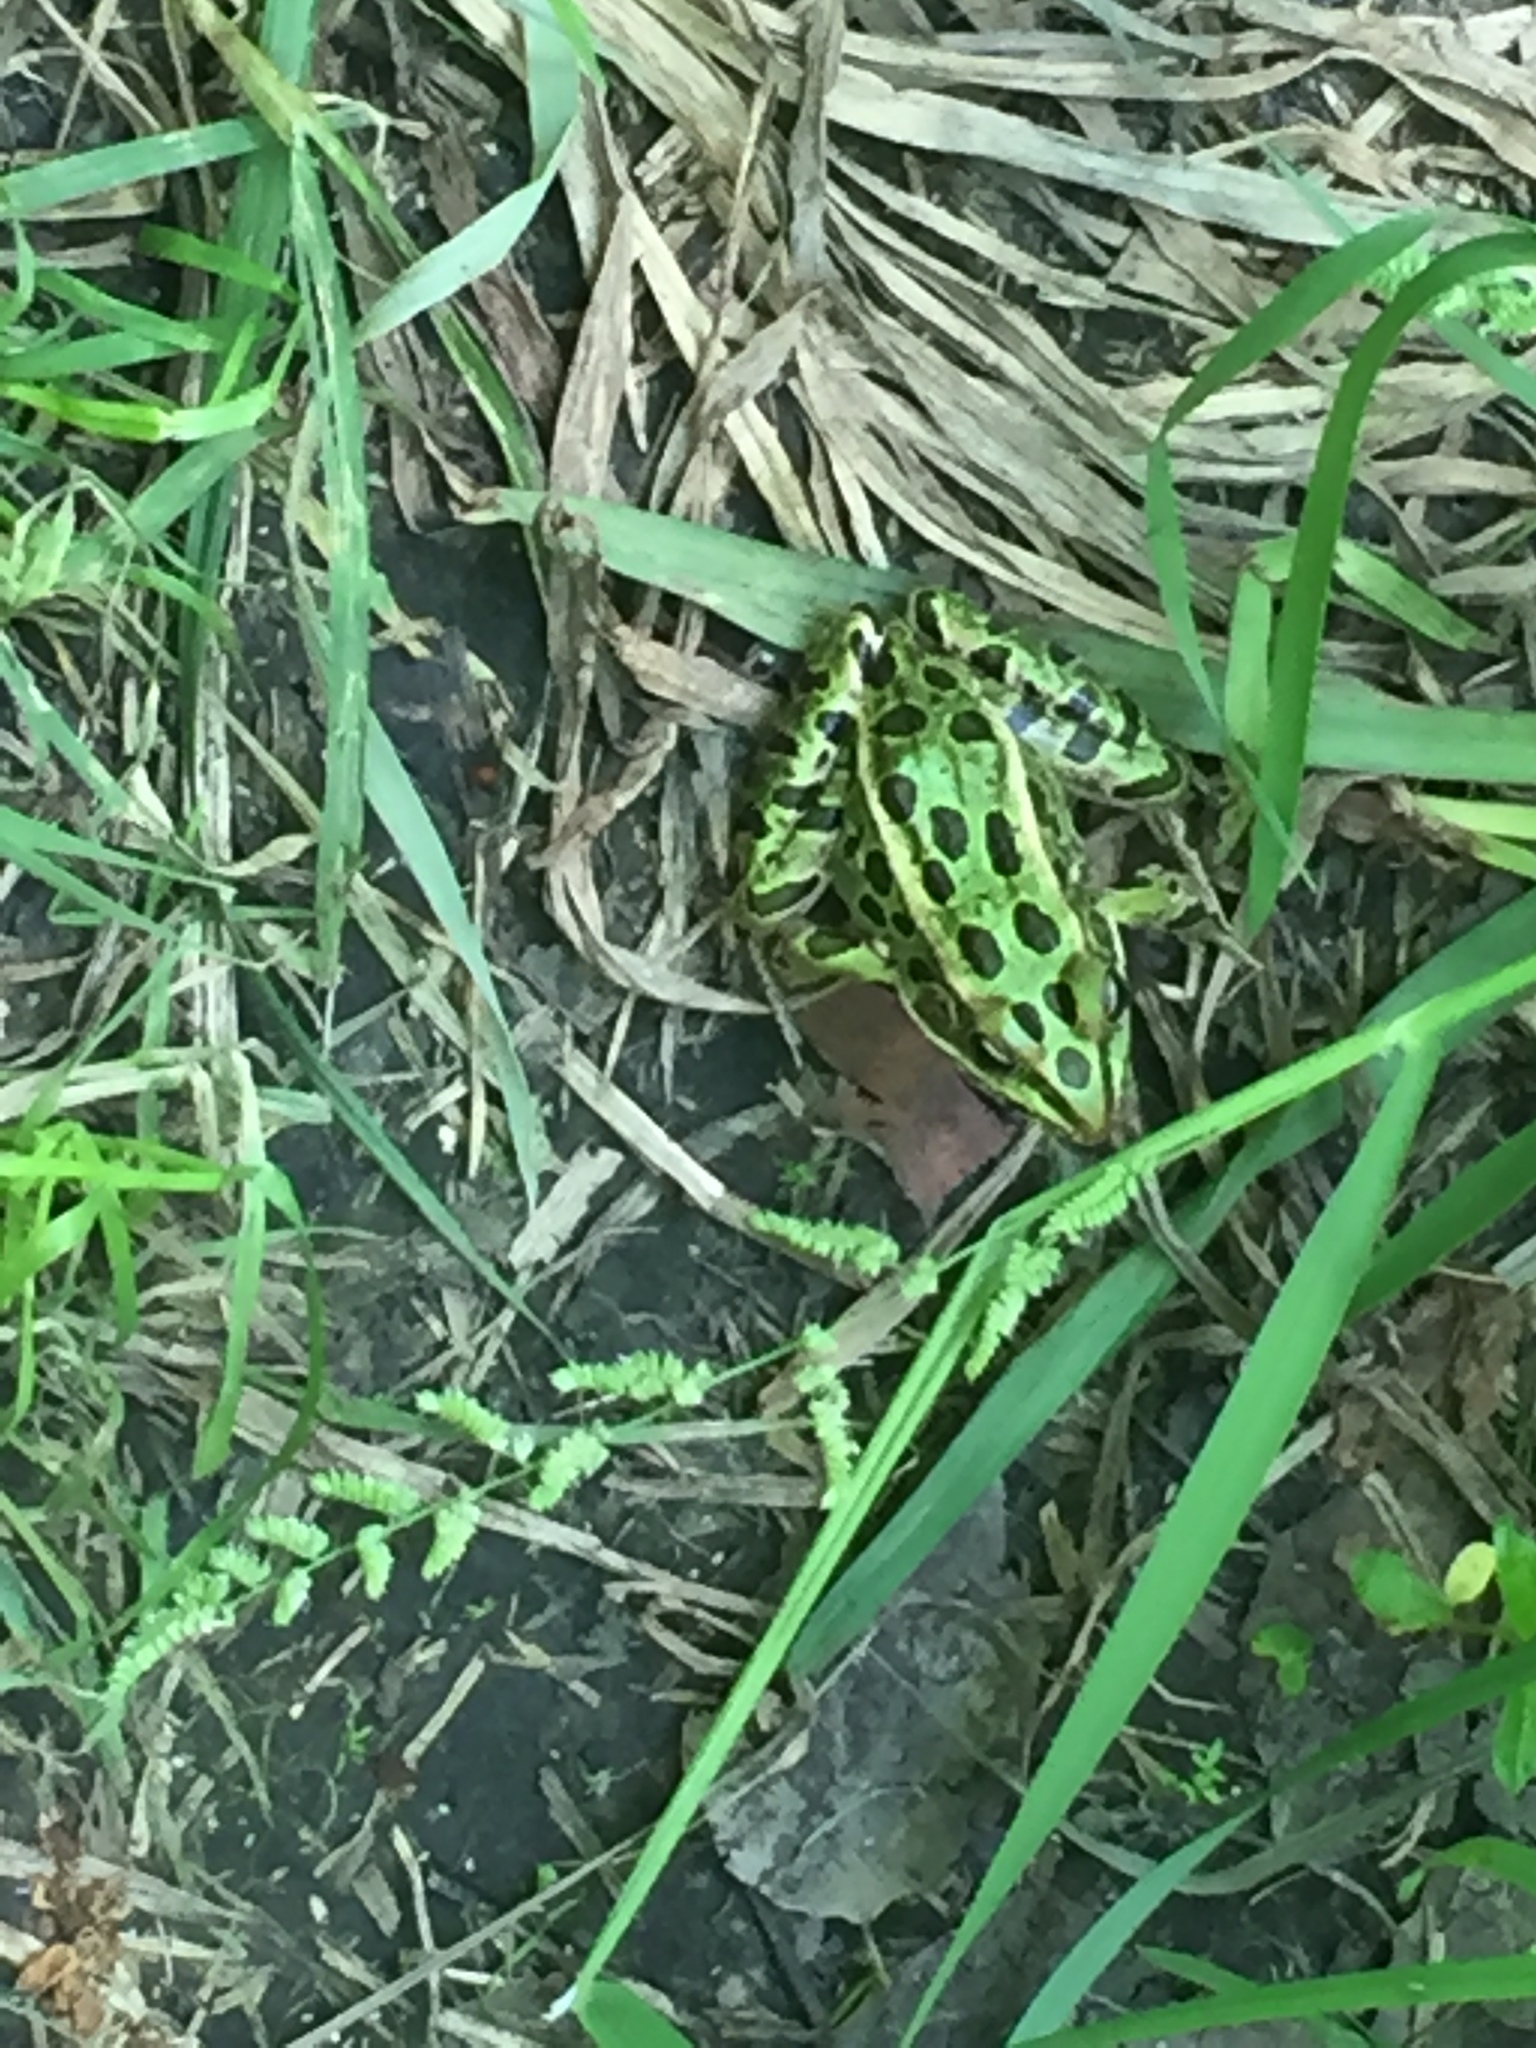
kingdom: Animalia
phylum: Chordata
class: Amphibia
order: Anura
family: Ranidae
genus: Lithobates
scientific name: Lithobates pipiens
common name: Northern leopard frog
